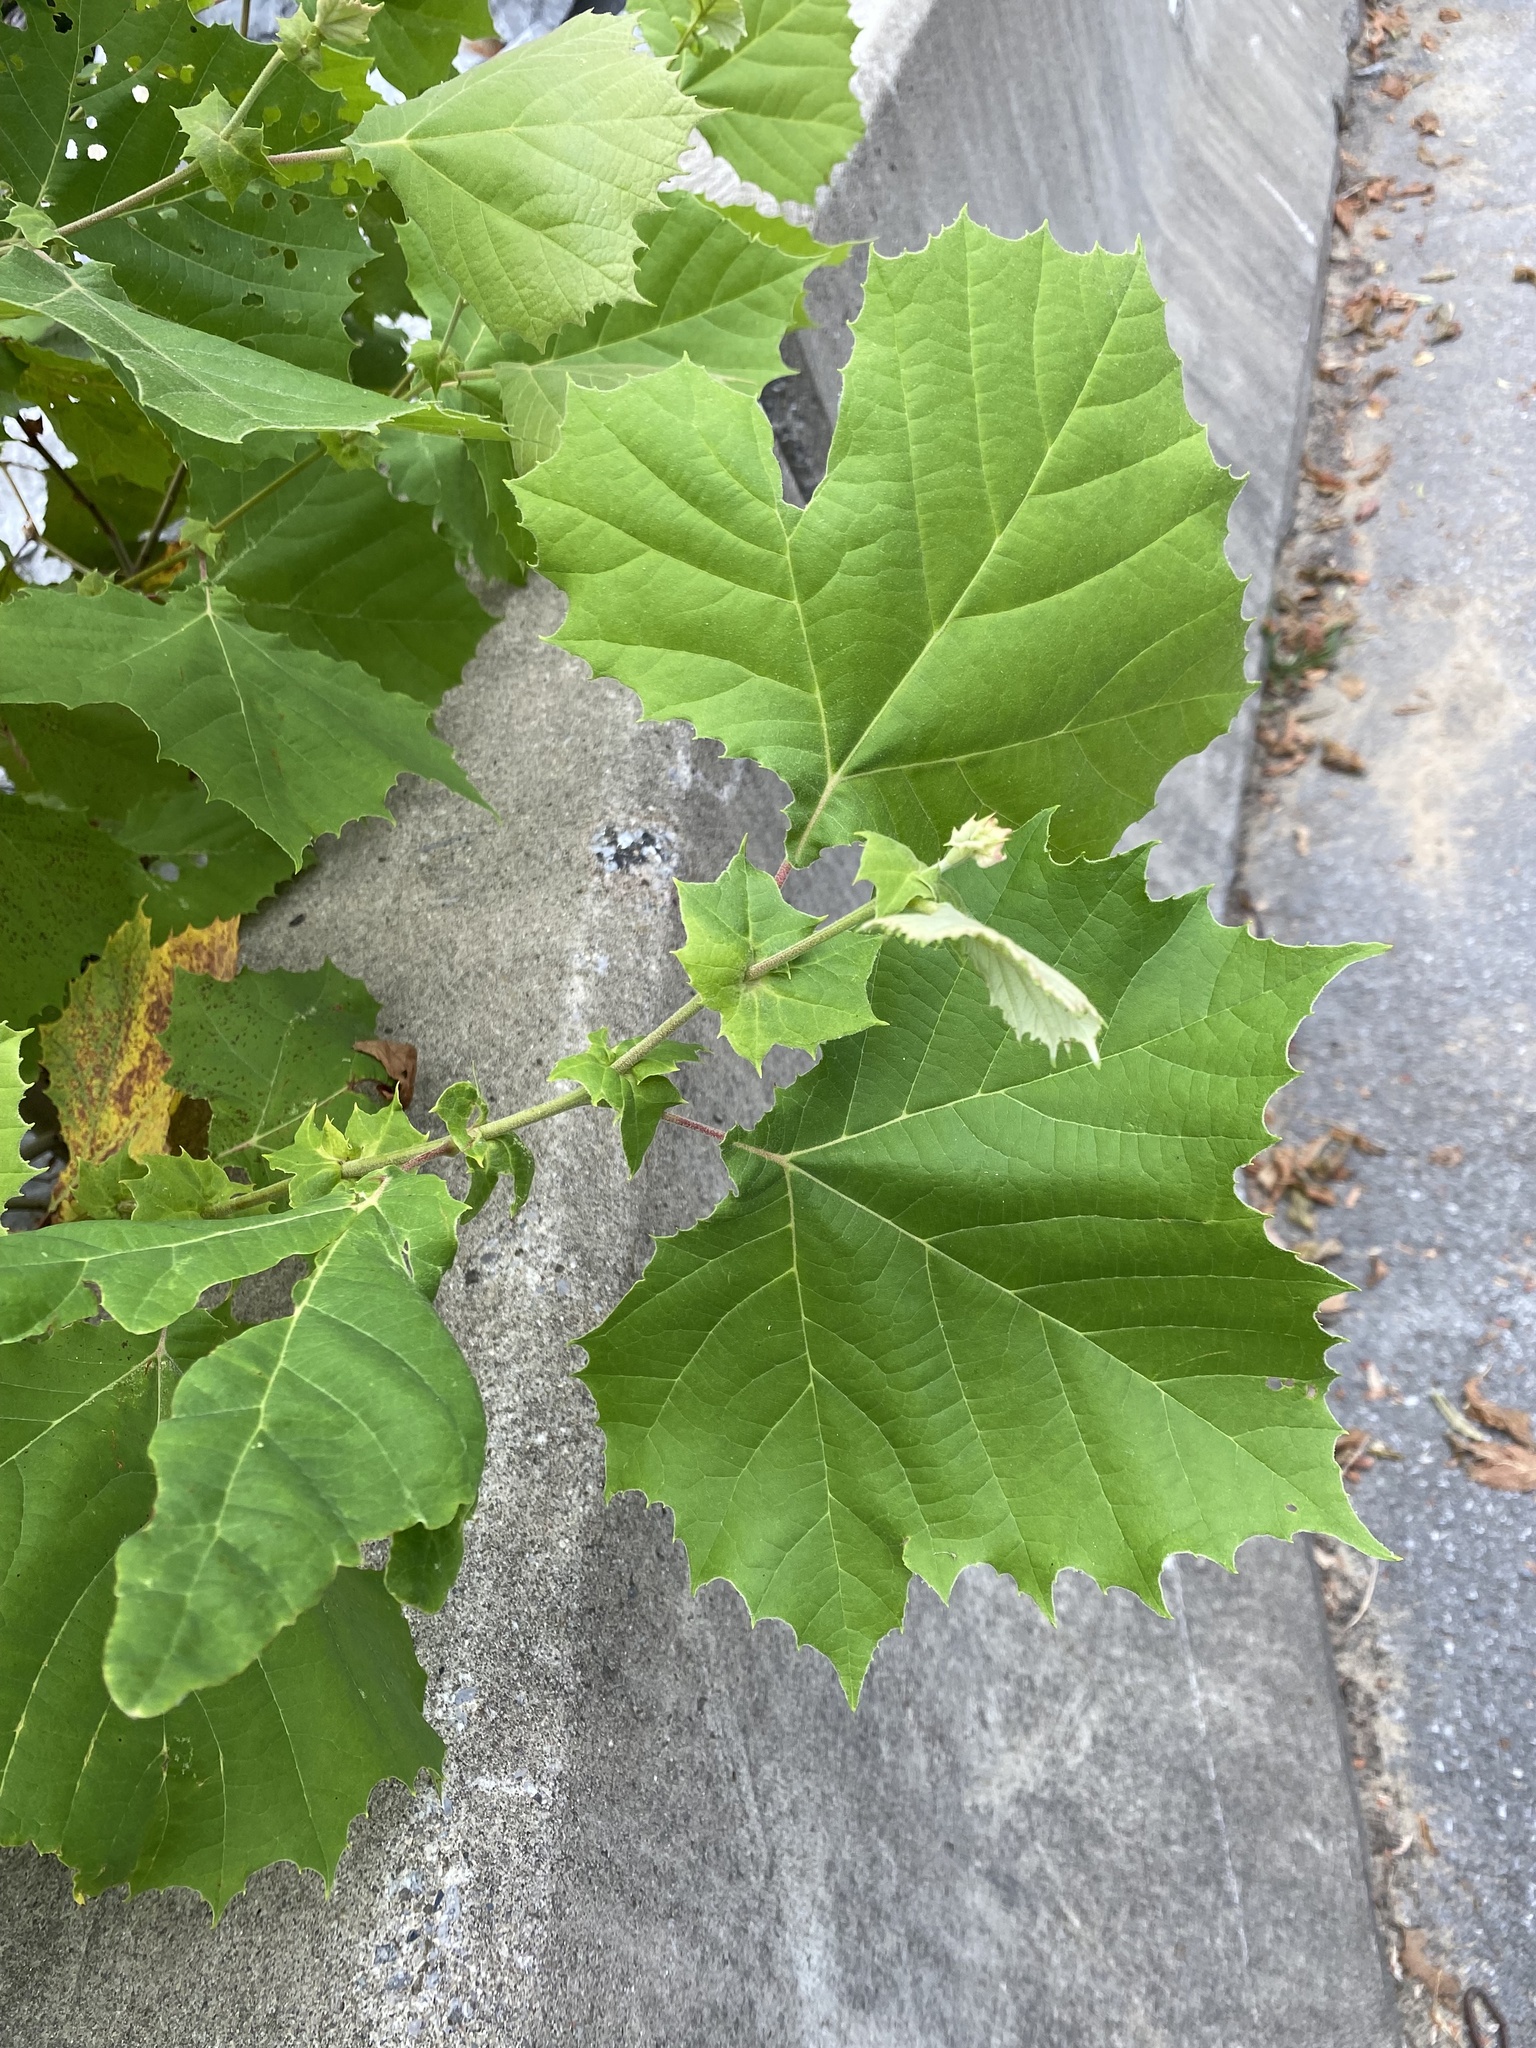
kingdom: Plantae
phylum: Tracheophyta
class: Magnoliopsida
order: Proteales
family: Platanaceae
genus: Platanus
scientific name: Platanus occidentalis
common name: American sycamore
